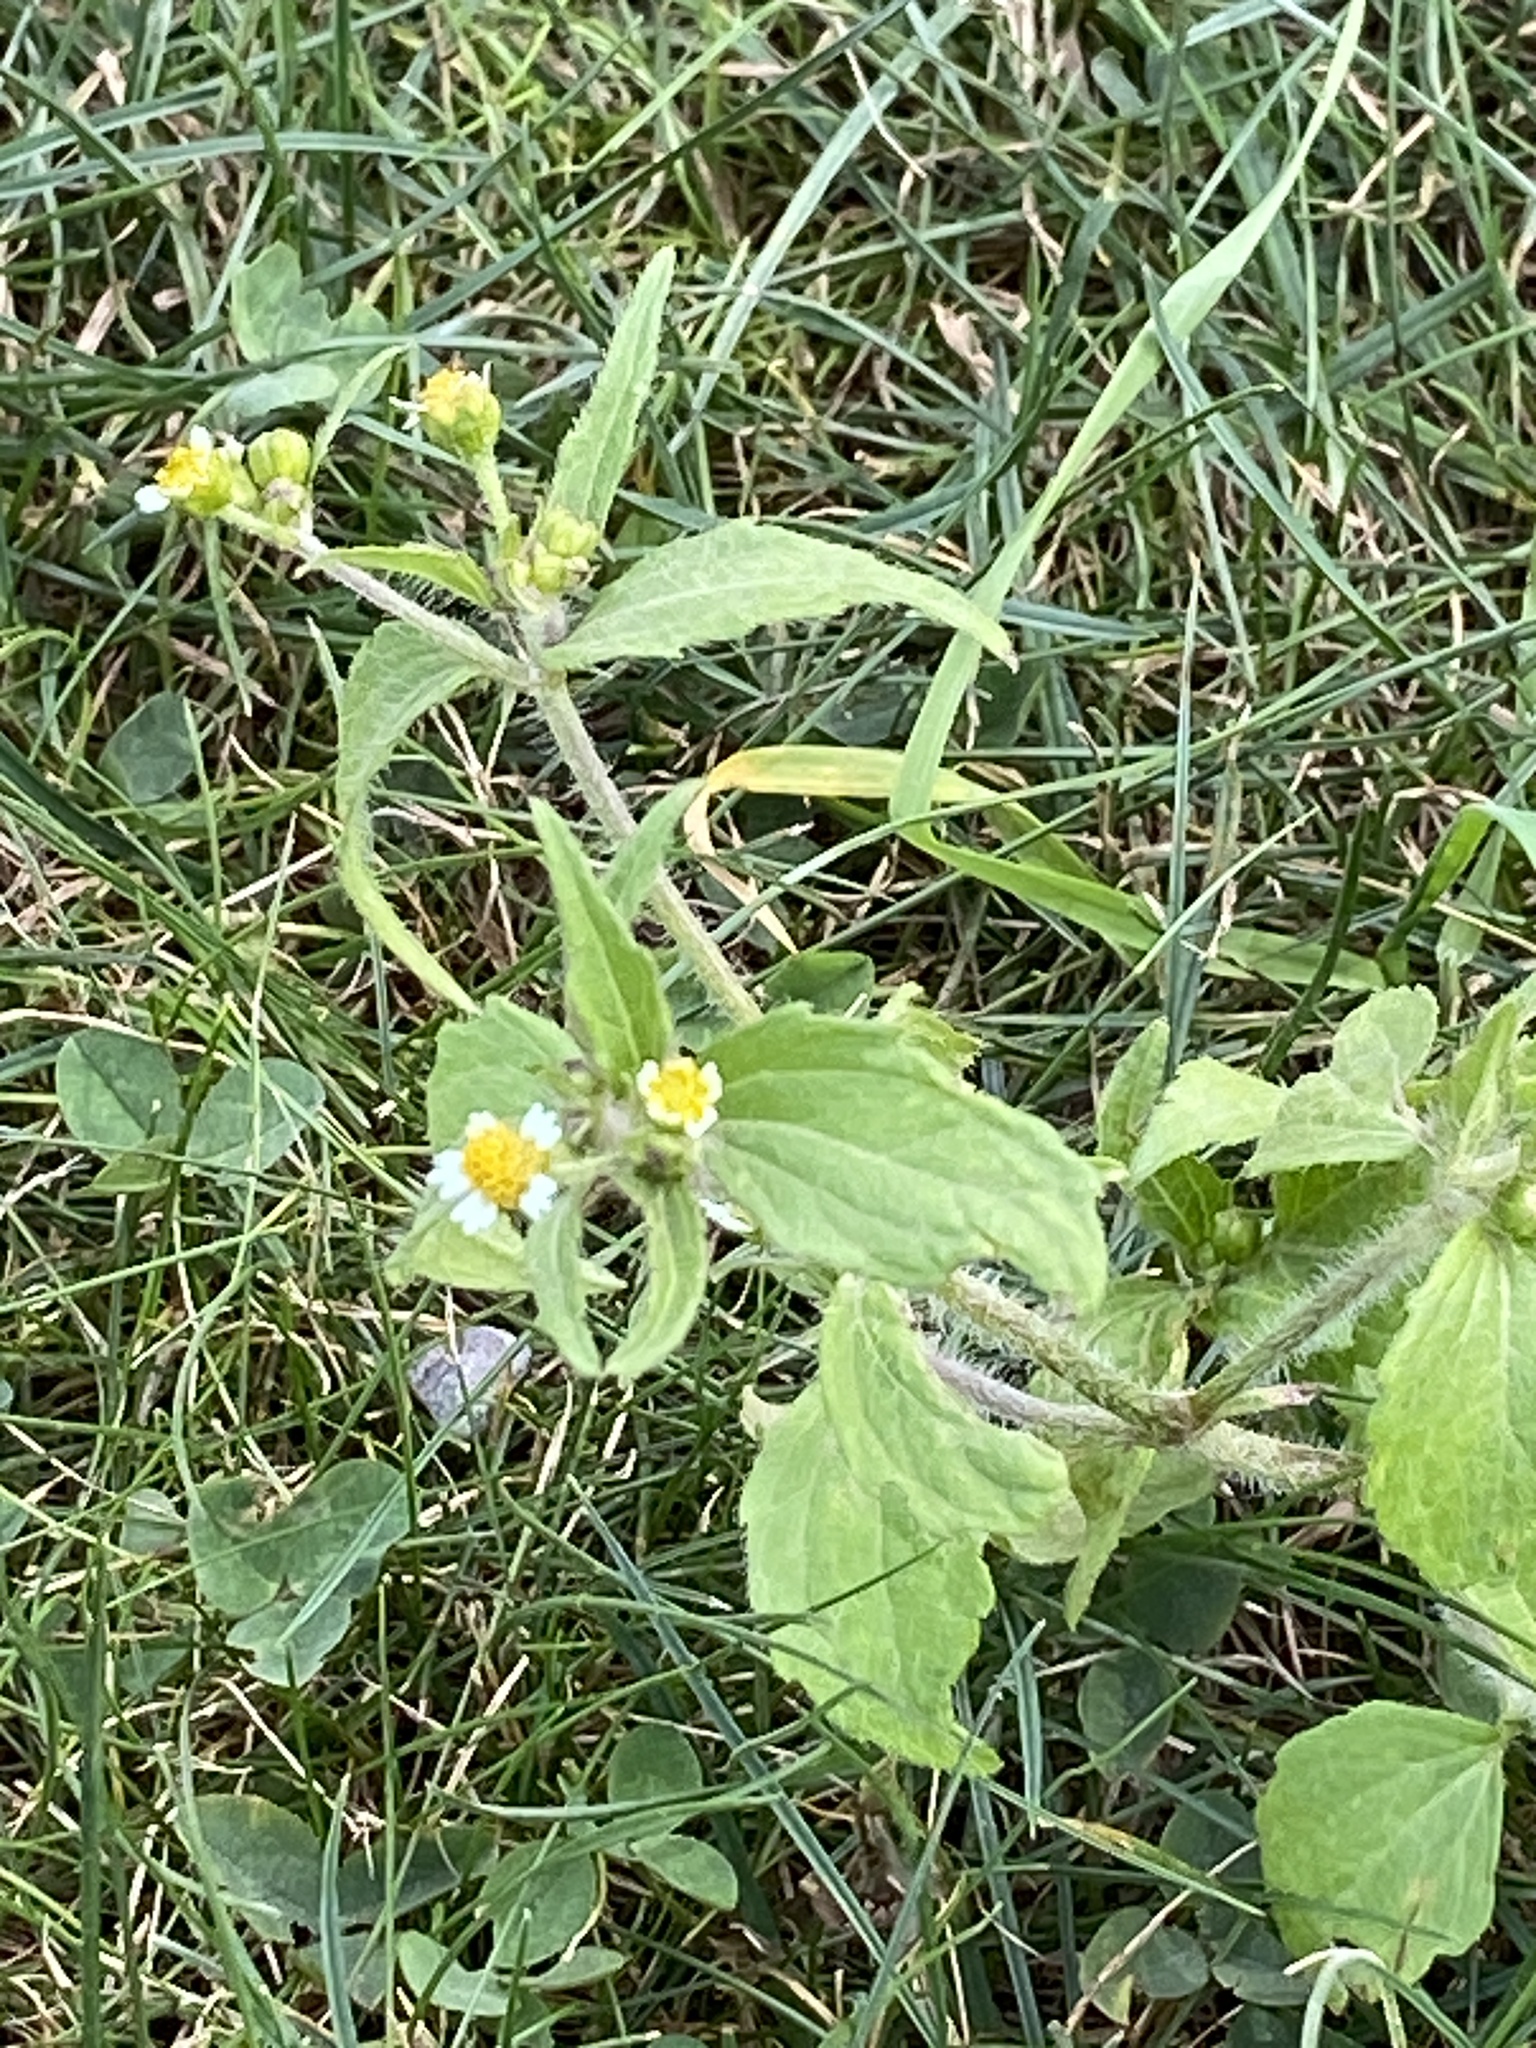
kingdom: Plantae
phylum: Tracheophyta
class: Magnoliopsida
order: Asterales
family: Asteraceae
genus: Galinsoga
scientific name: Galinsoga quadriradiata
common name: Shaggy soldier
